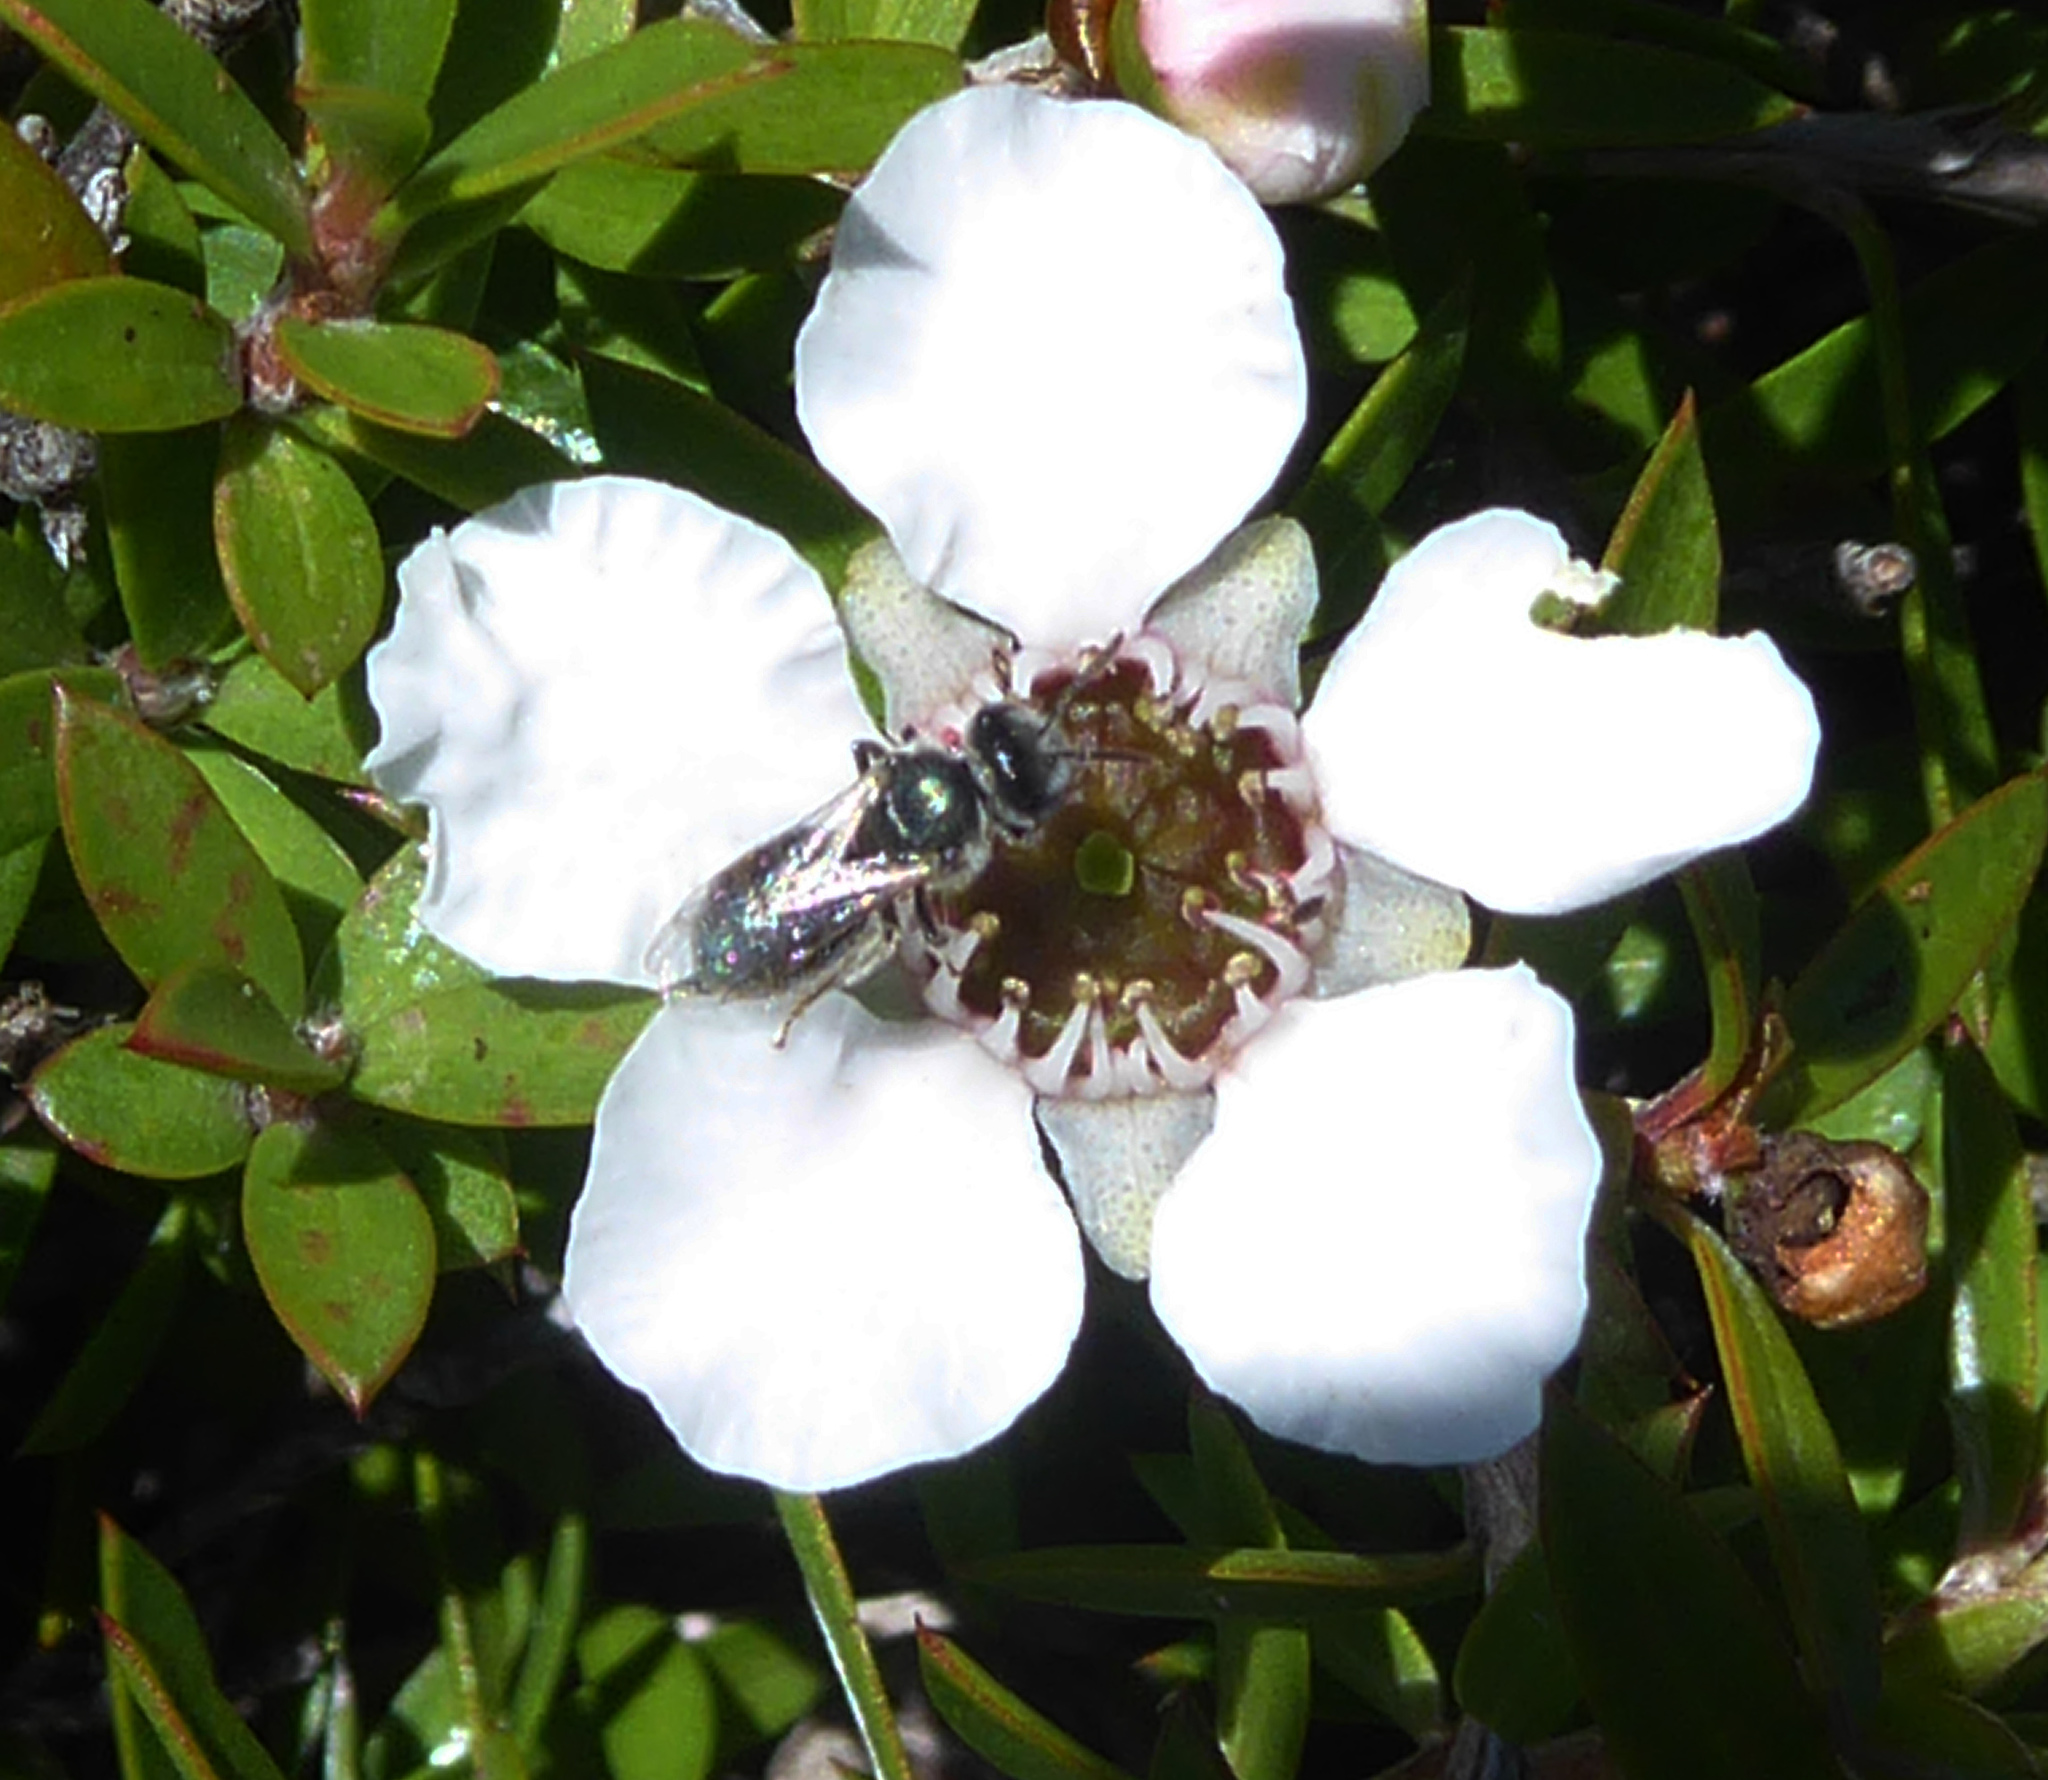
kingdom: Animalia
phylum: Arthropoda
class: Insecta
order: Hymenoptera
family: Halictidae
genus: Lasioglossum
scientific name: Lasioglossum cognatum
